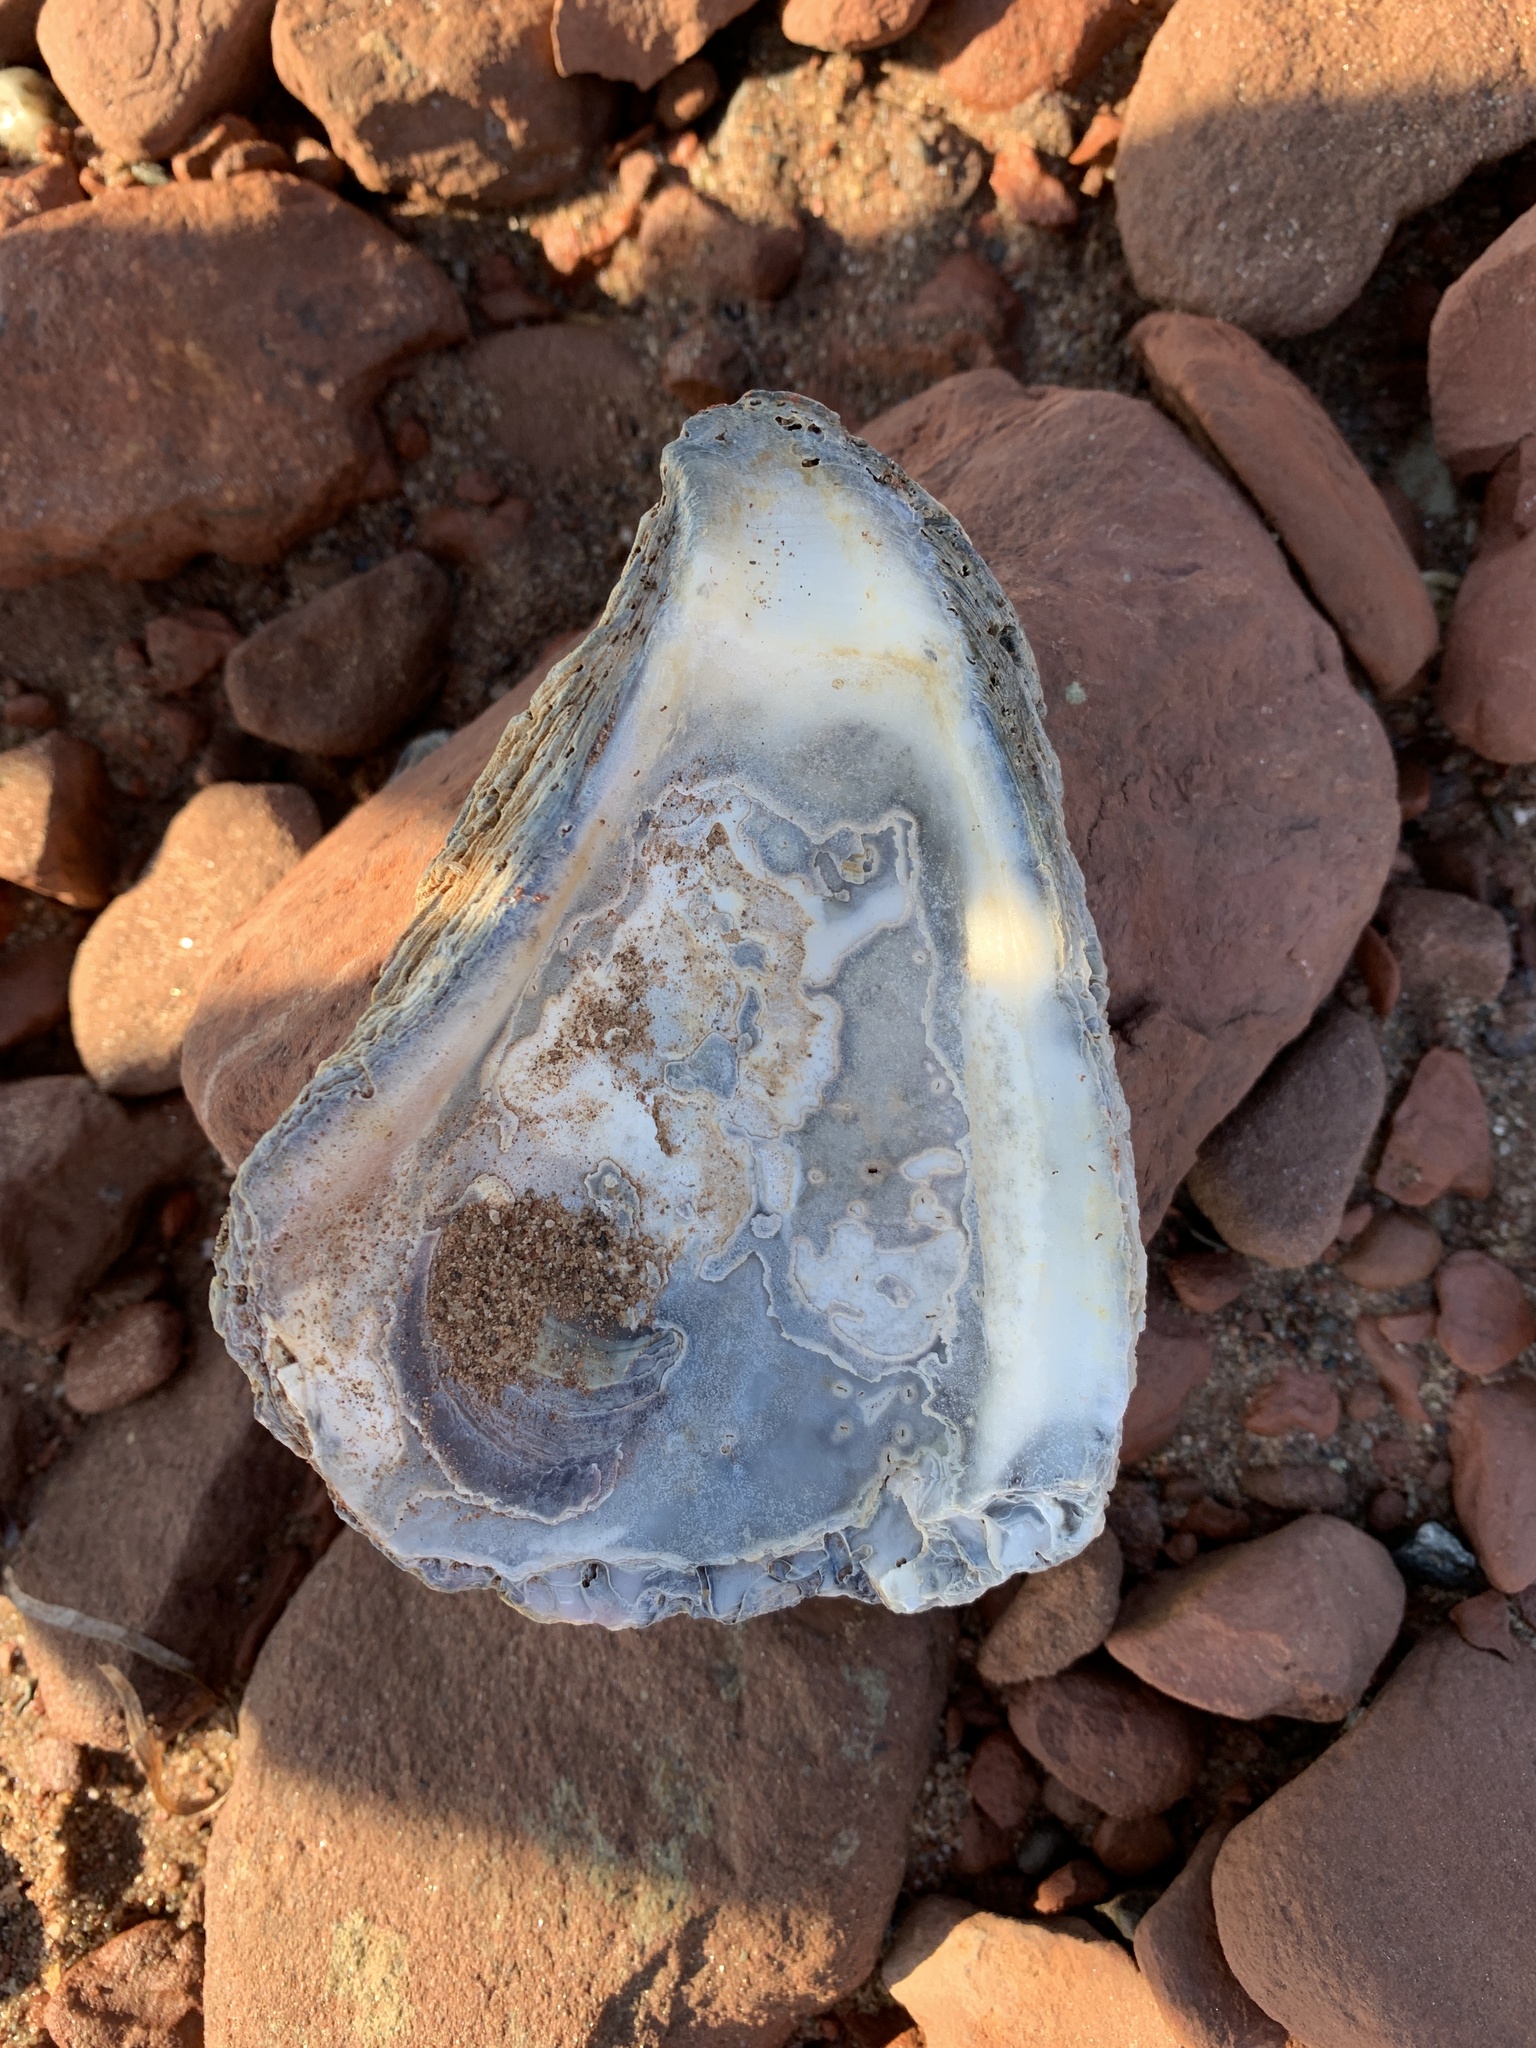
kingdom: Animalia
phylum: Mollusca
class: Bivalvia
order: Ostreida
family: Ostreidae
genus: Crassostrea
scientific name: Crassostrea virginica
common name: American oyster
